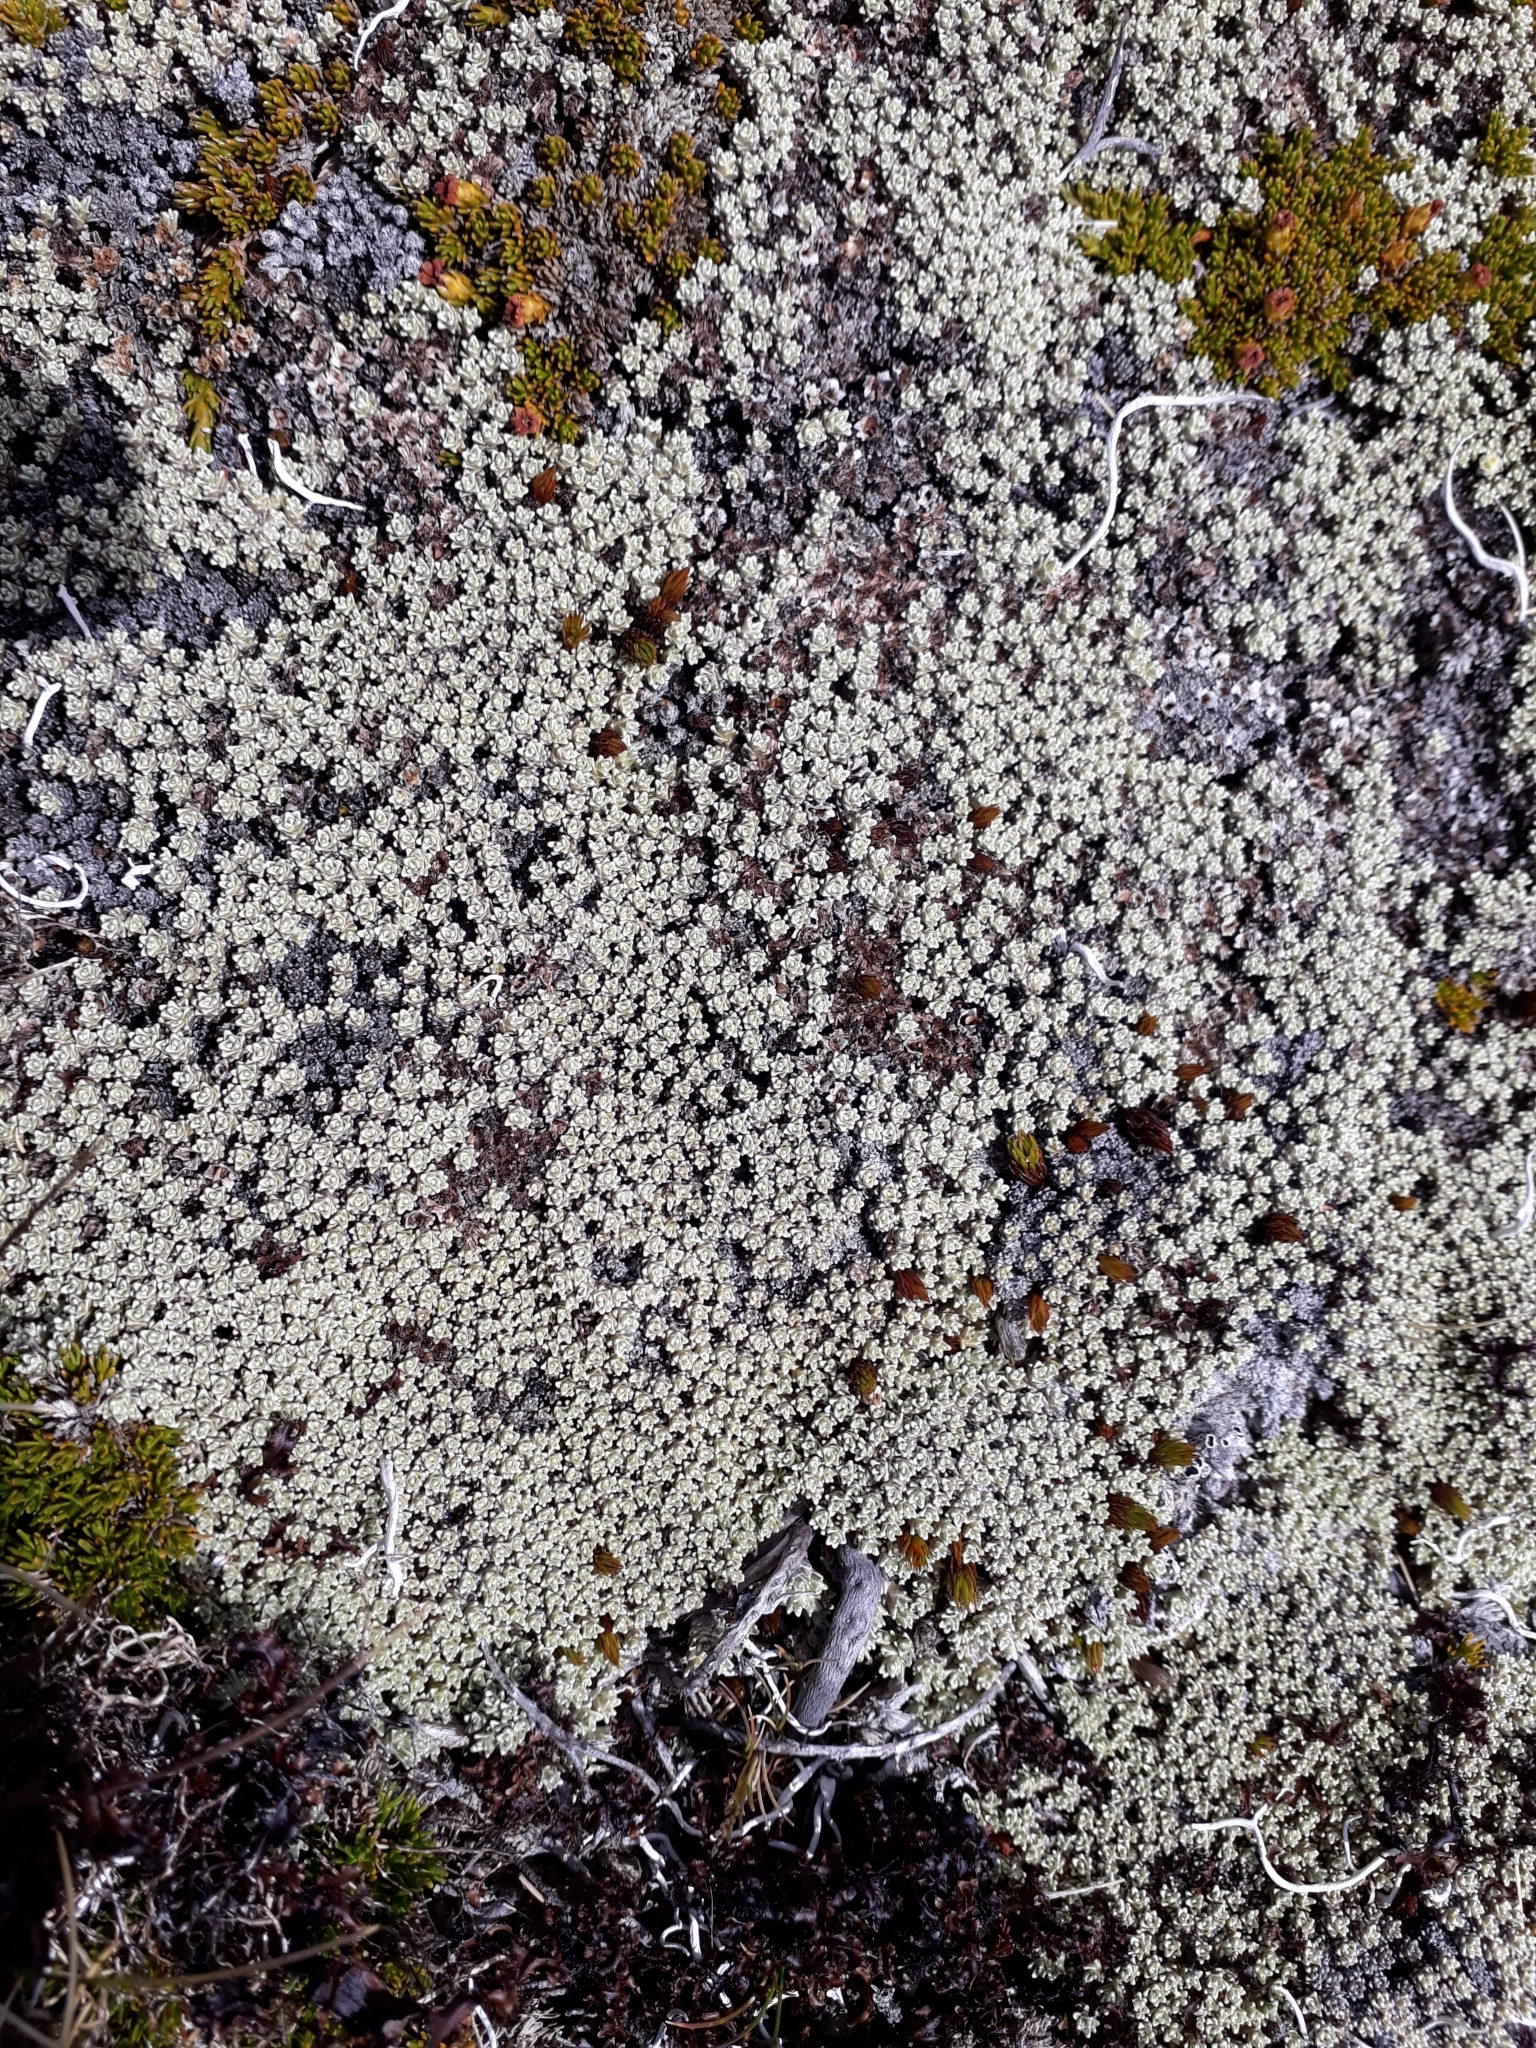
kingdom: Plantae
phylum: Tracheophyta
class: Magnoliopsida
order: Asterales
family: Asteraceae
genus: Raoulia
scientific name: Raoulia hectorii
